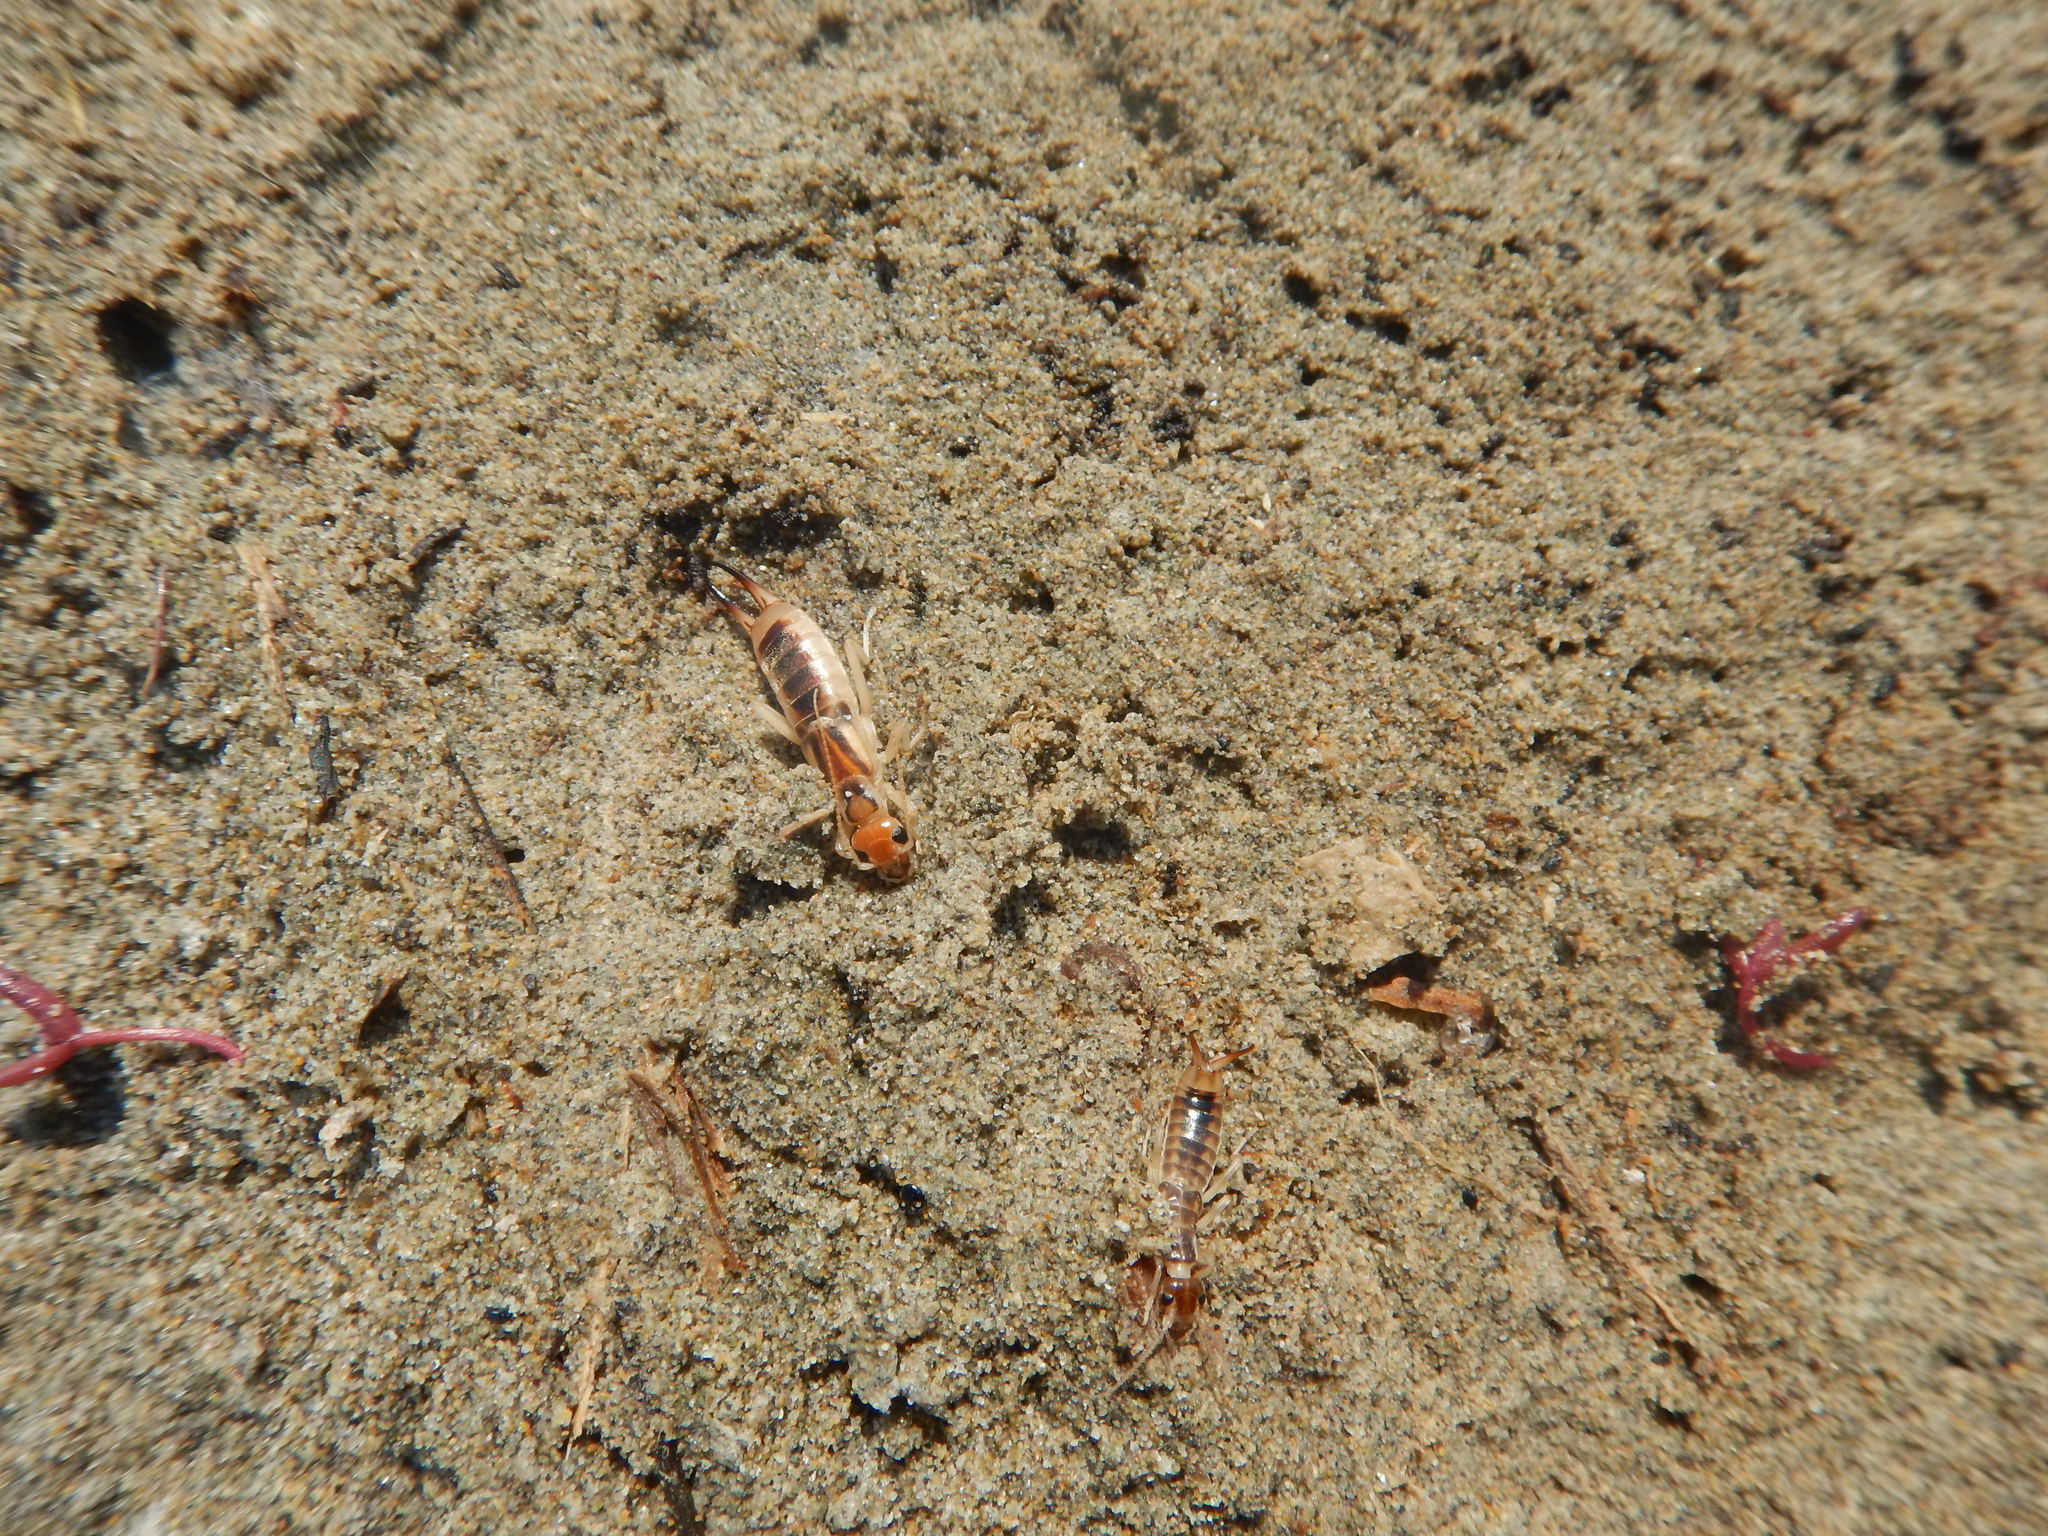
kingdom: Animalia
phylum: Arthropoda
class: Insecta
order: Dermaptera
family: Labiduridae
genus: Labidura
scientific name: Labidura riparia
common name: Striped earwig
